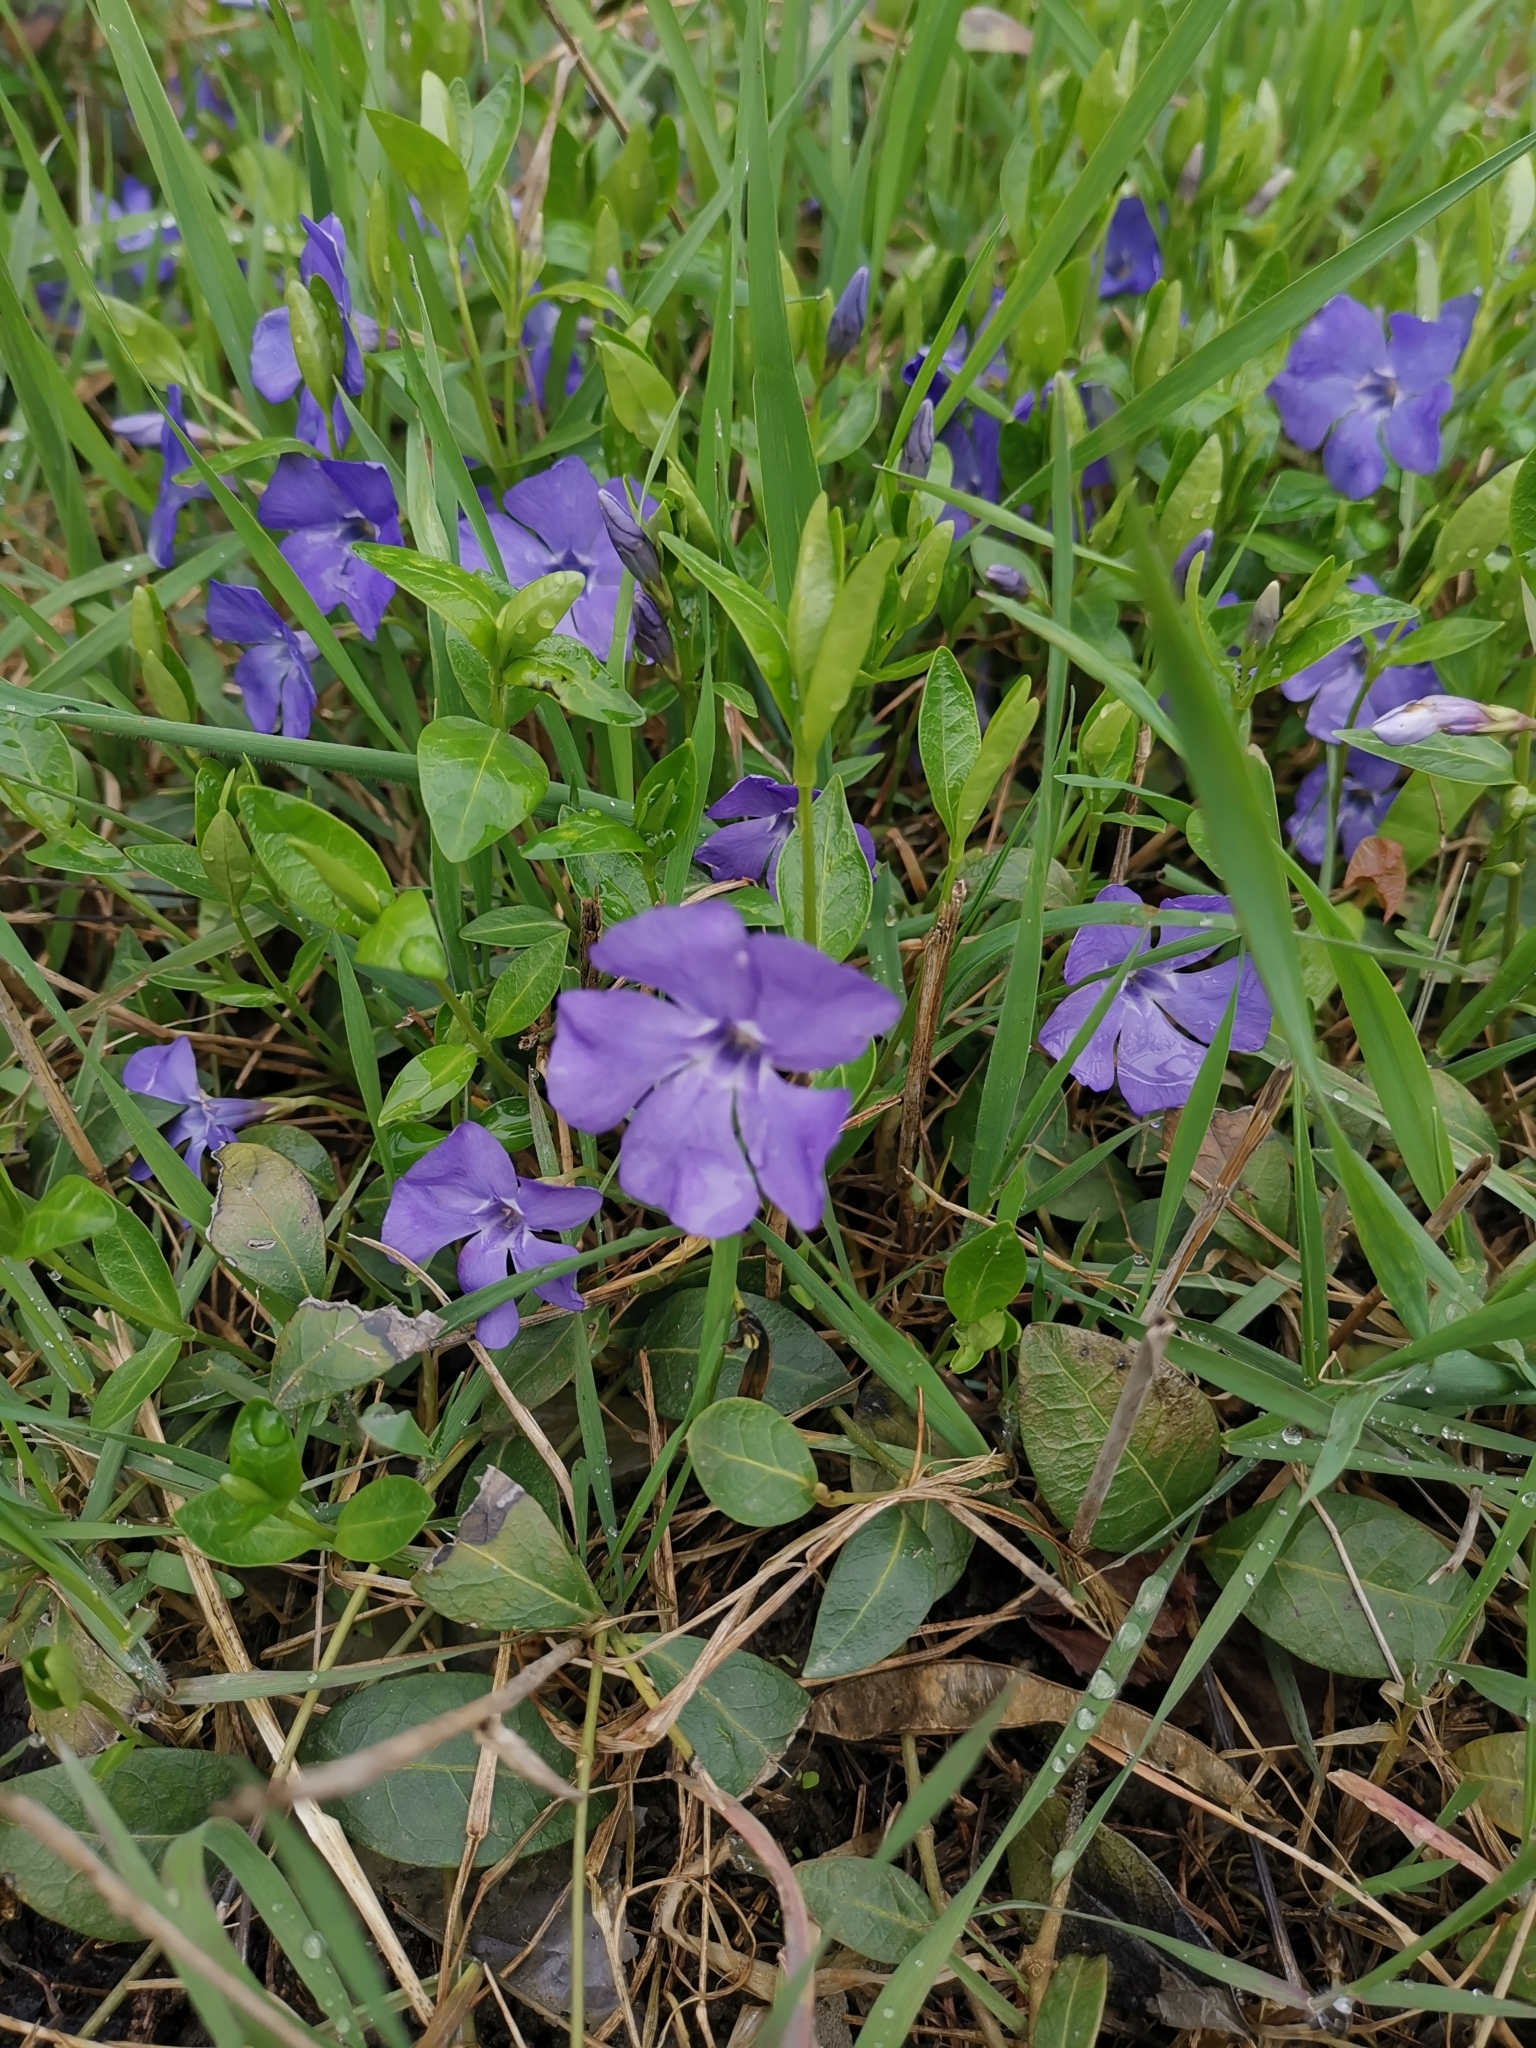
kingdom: Plantae
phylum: Tracheophyta
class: Magnoliopsida
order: Gentianales
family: Apocynaceae
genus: Vinca
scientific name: Vinca minor
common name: Lesser periwinkle
